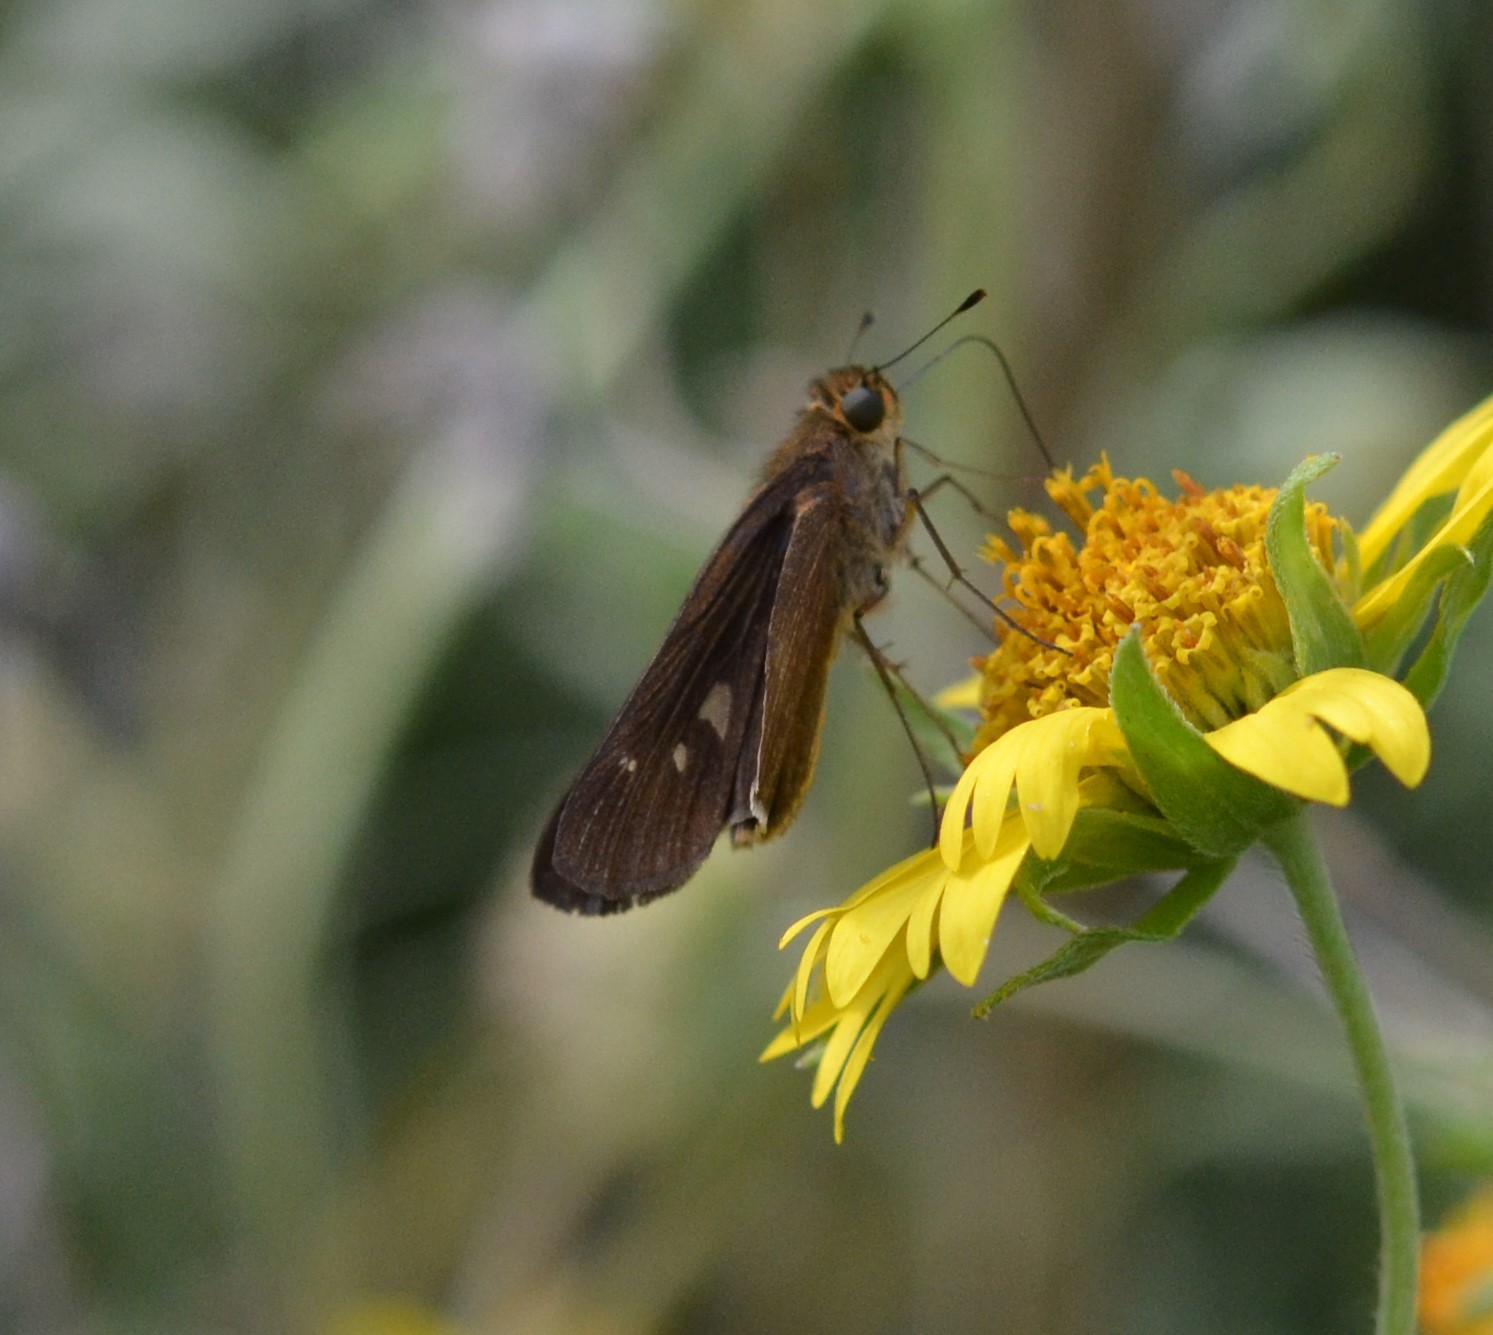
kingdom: Animalia
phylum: Arthropoda
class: Insecta
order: Lepidoptera
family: Hesperiidae
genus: Panoquina
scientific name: Panoquina ocola
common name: Ocola skipper
